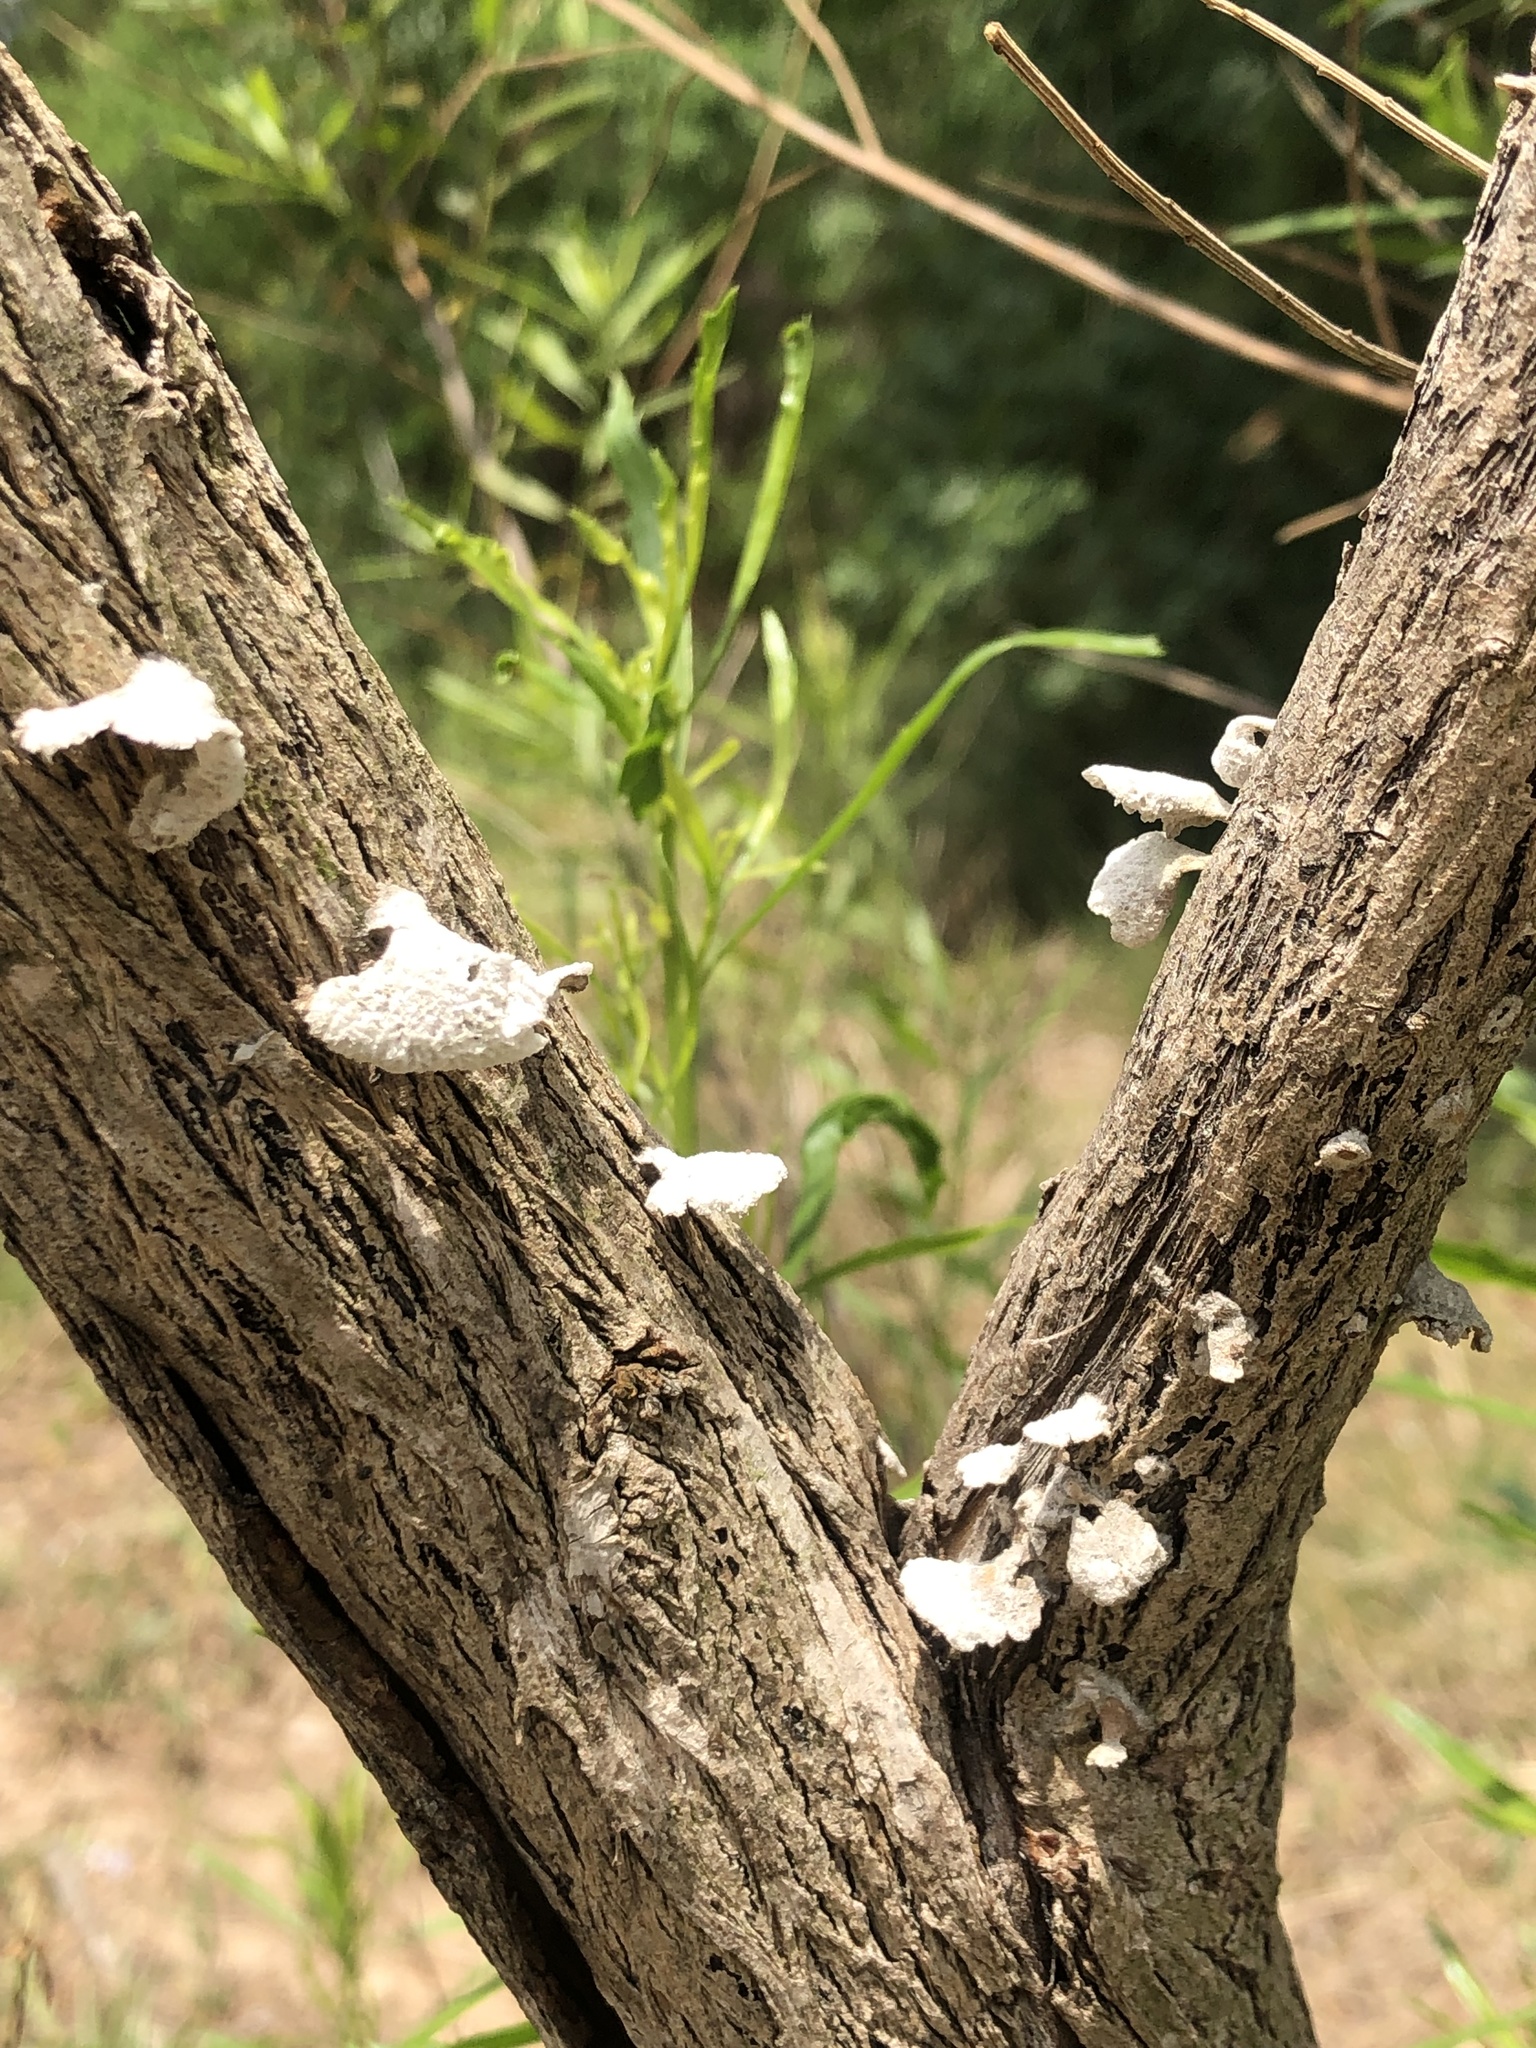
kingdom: Fungi
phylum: Basidiomycota
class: Agaricomycetes
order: Agaricales
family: Schizophyllaceae
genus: Schizophyllum
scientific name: Schizophyllum commune
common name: Common porecrust
